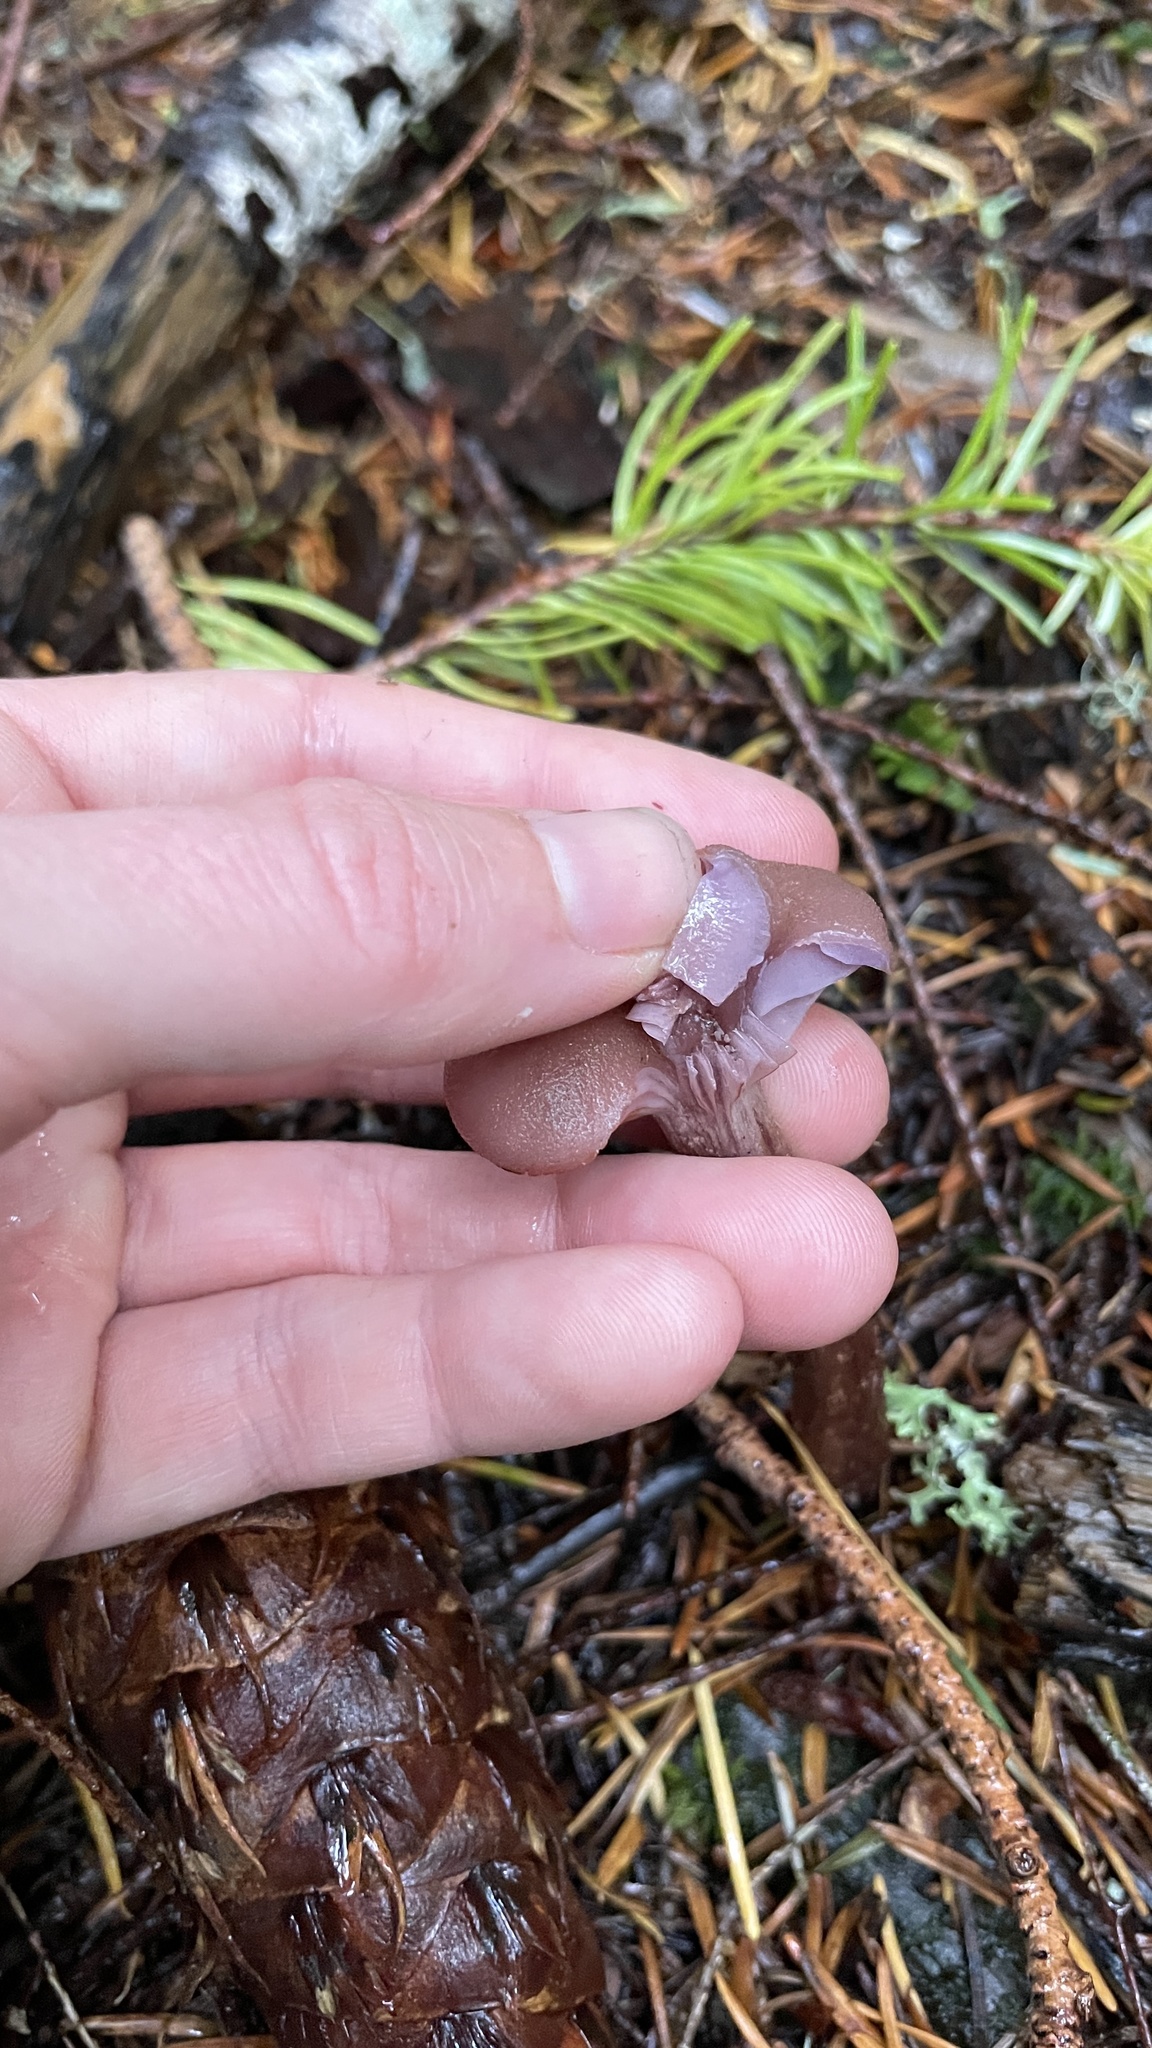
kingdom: Fungi
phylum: Basidiomycota
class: Agaricomycetes
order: Agaricales
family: Hydnangiaceae
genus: Laccaria
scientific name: Laccaria amethysteo-occidentalis
